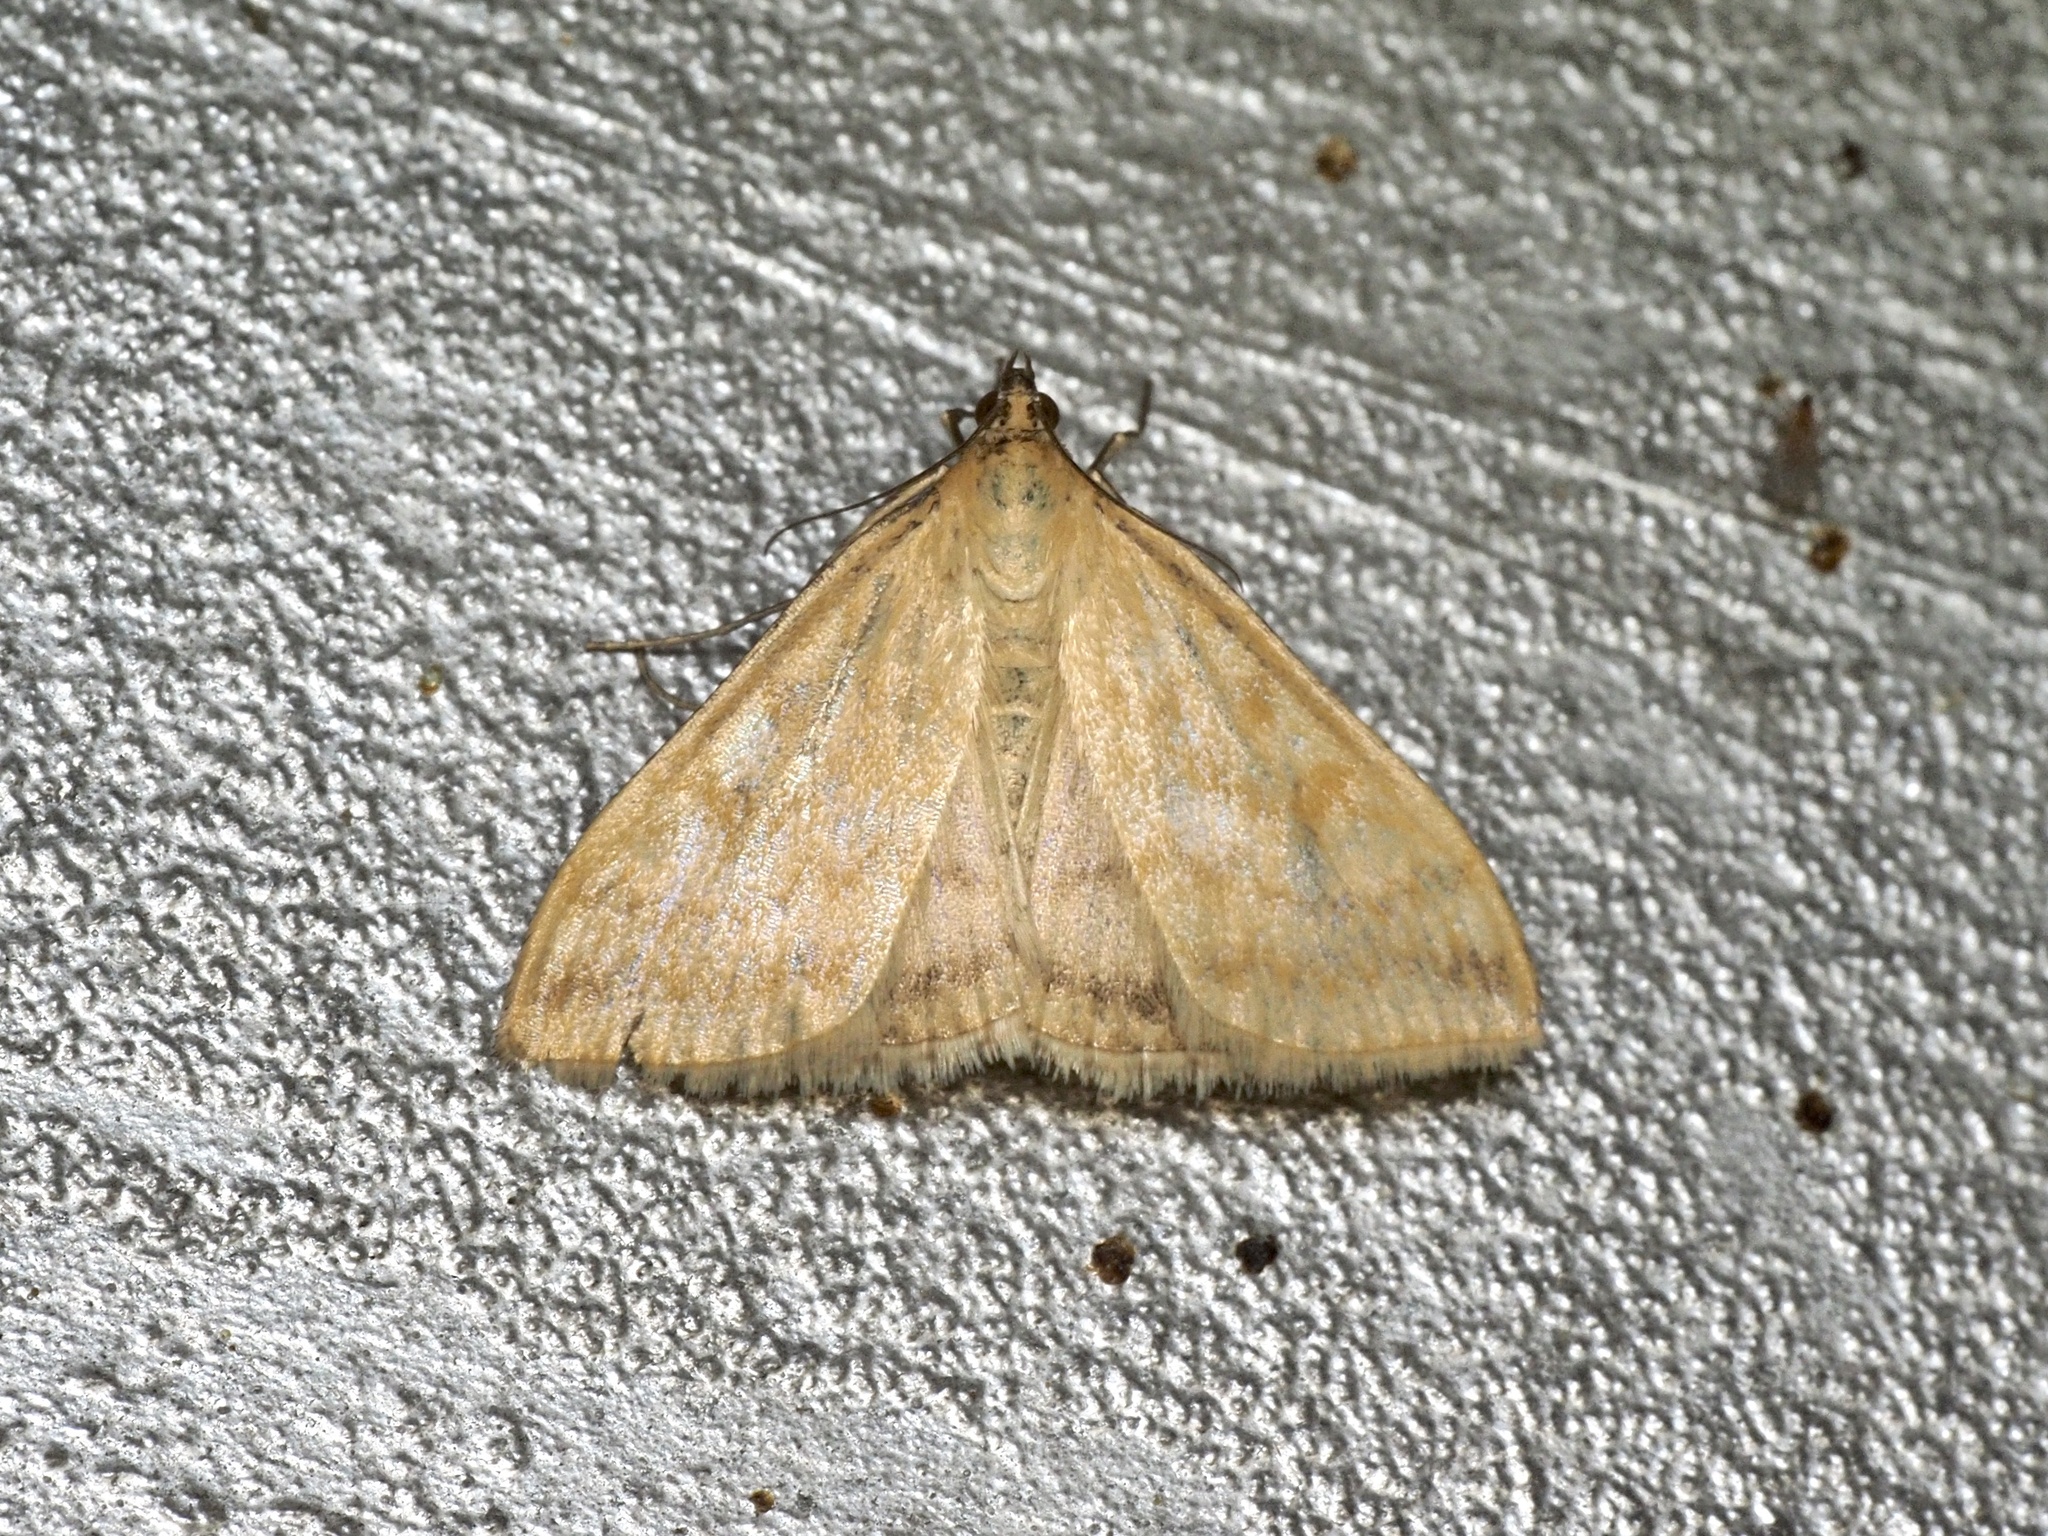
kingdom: Animalia
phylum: Arthropoda
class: Insecta
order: Lepidoptera
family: Crambidae
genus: Sitochroa
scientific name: Sitochroa verticalis
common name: Lesser pearl
